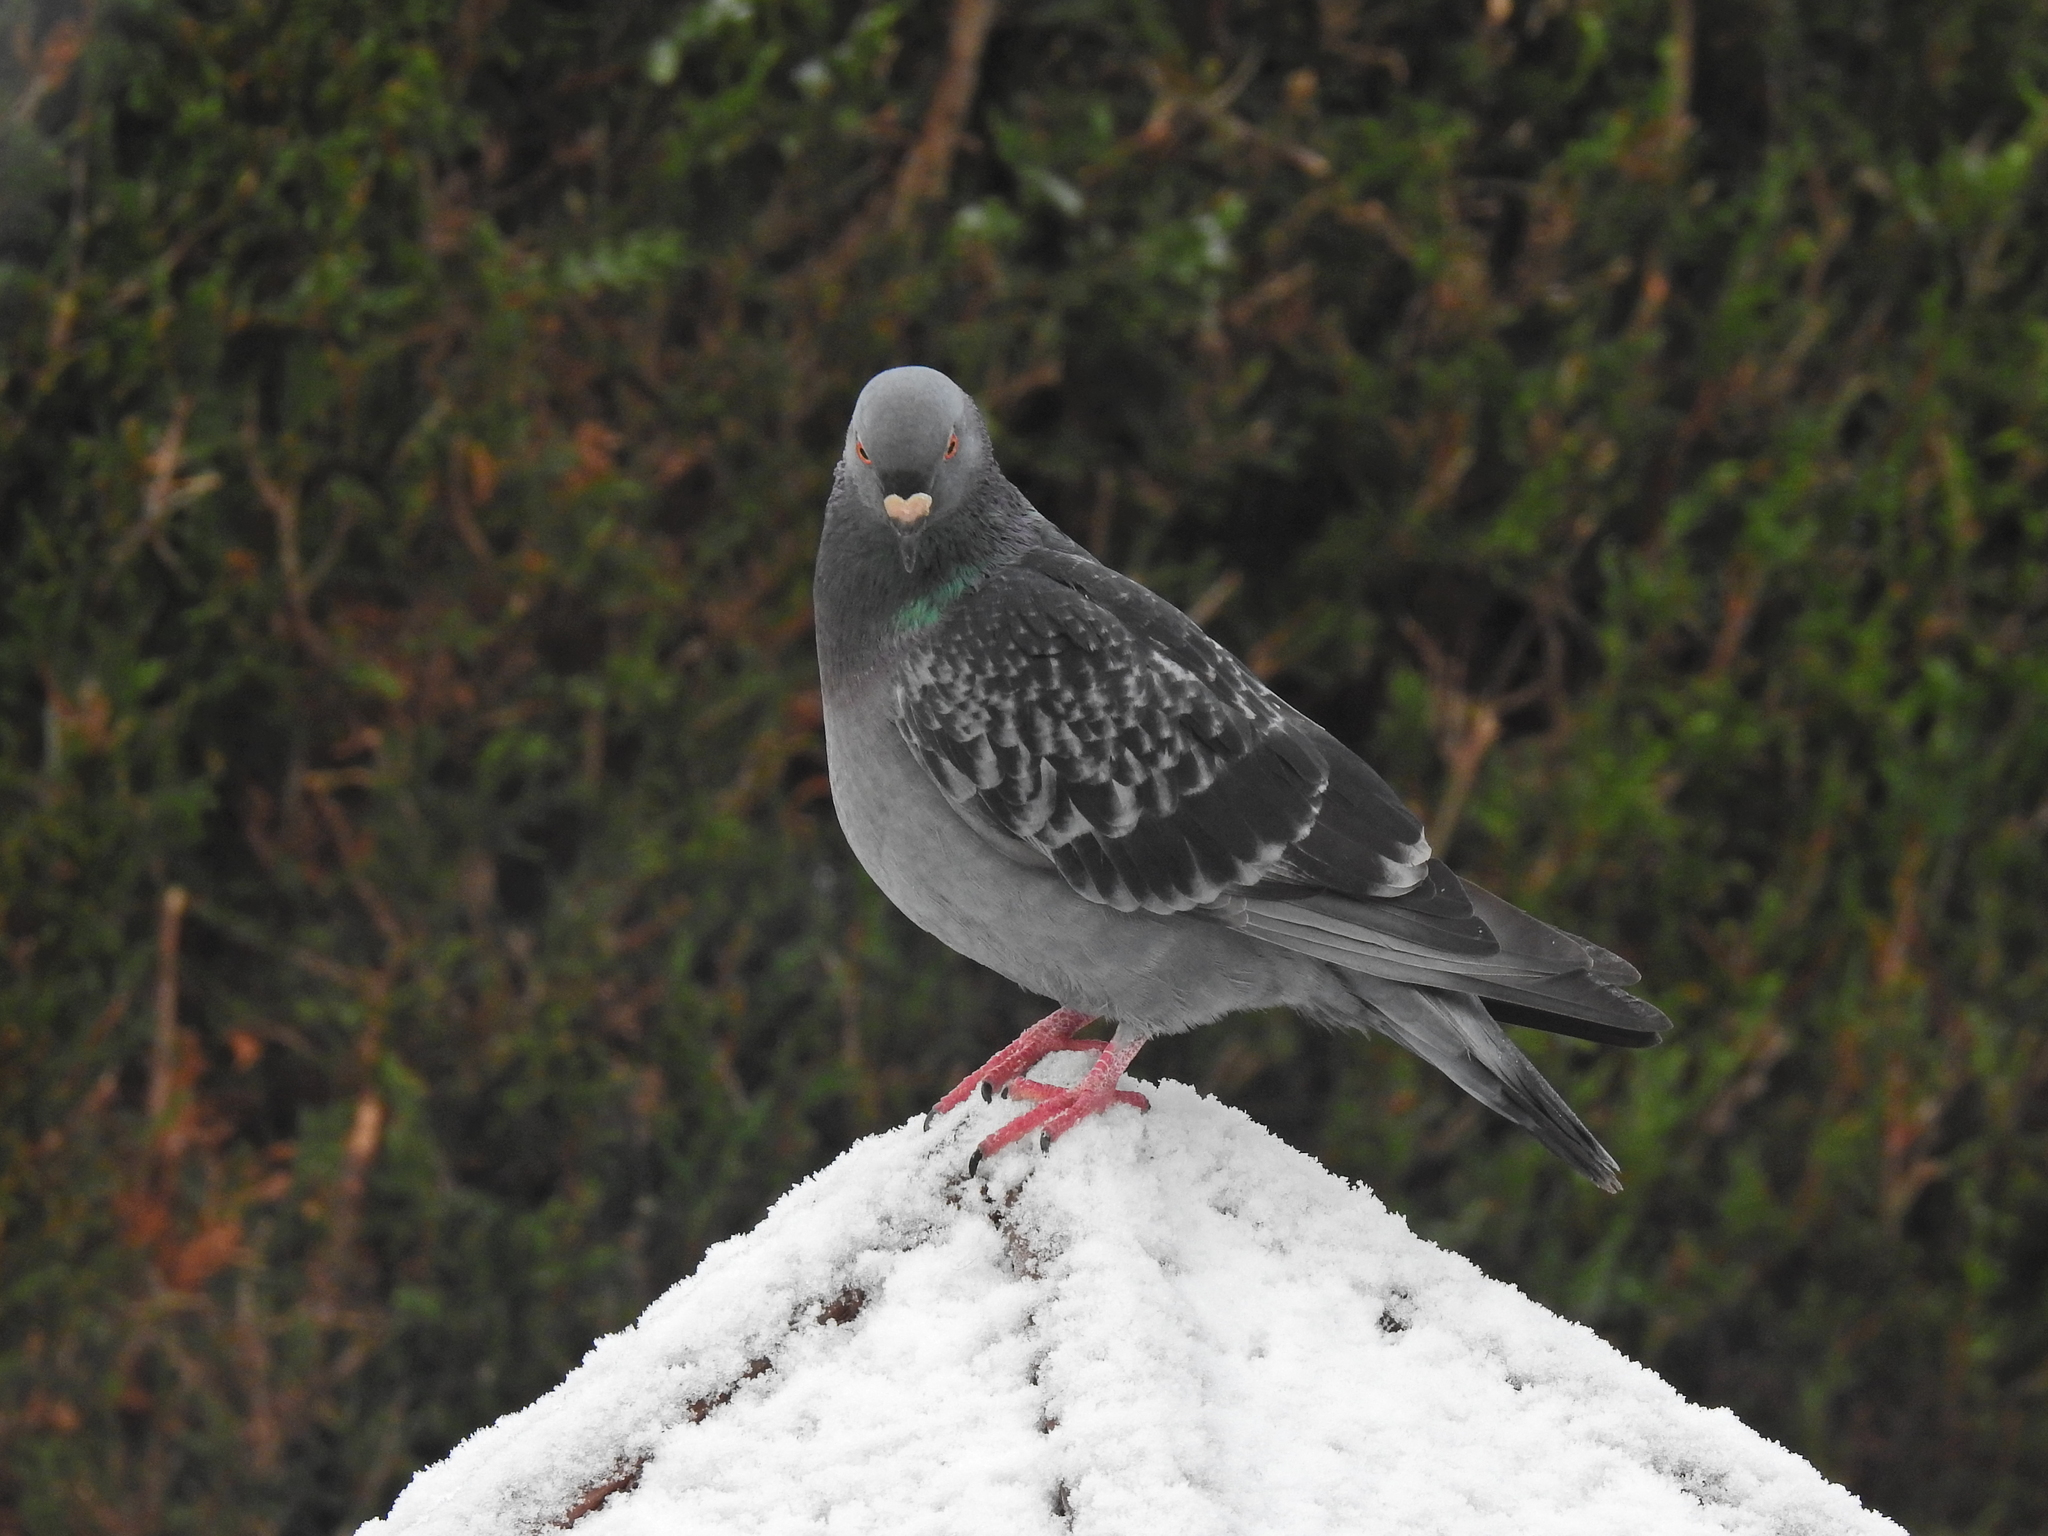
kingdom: Animalia
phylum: Chordata
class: Aves
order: Columbiformes
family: Columbidae
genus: Columba
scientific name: Columba livia
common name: Rock pigeon
